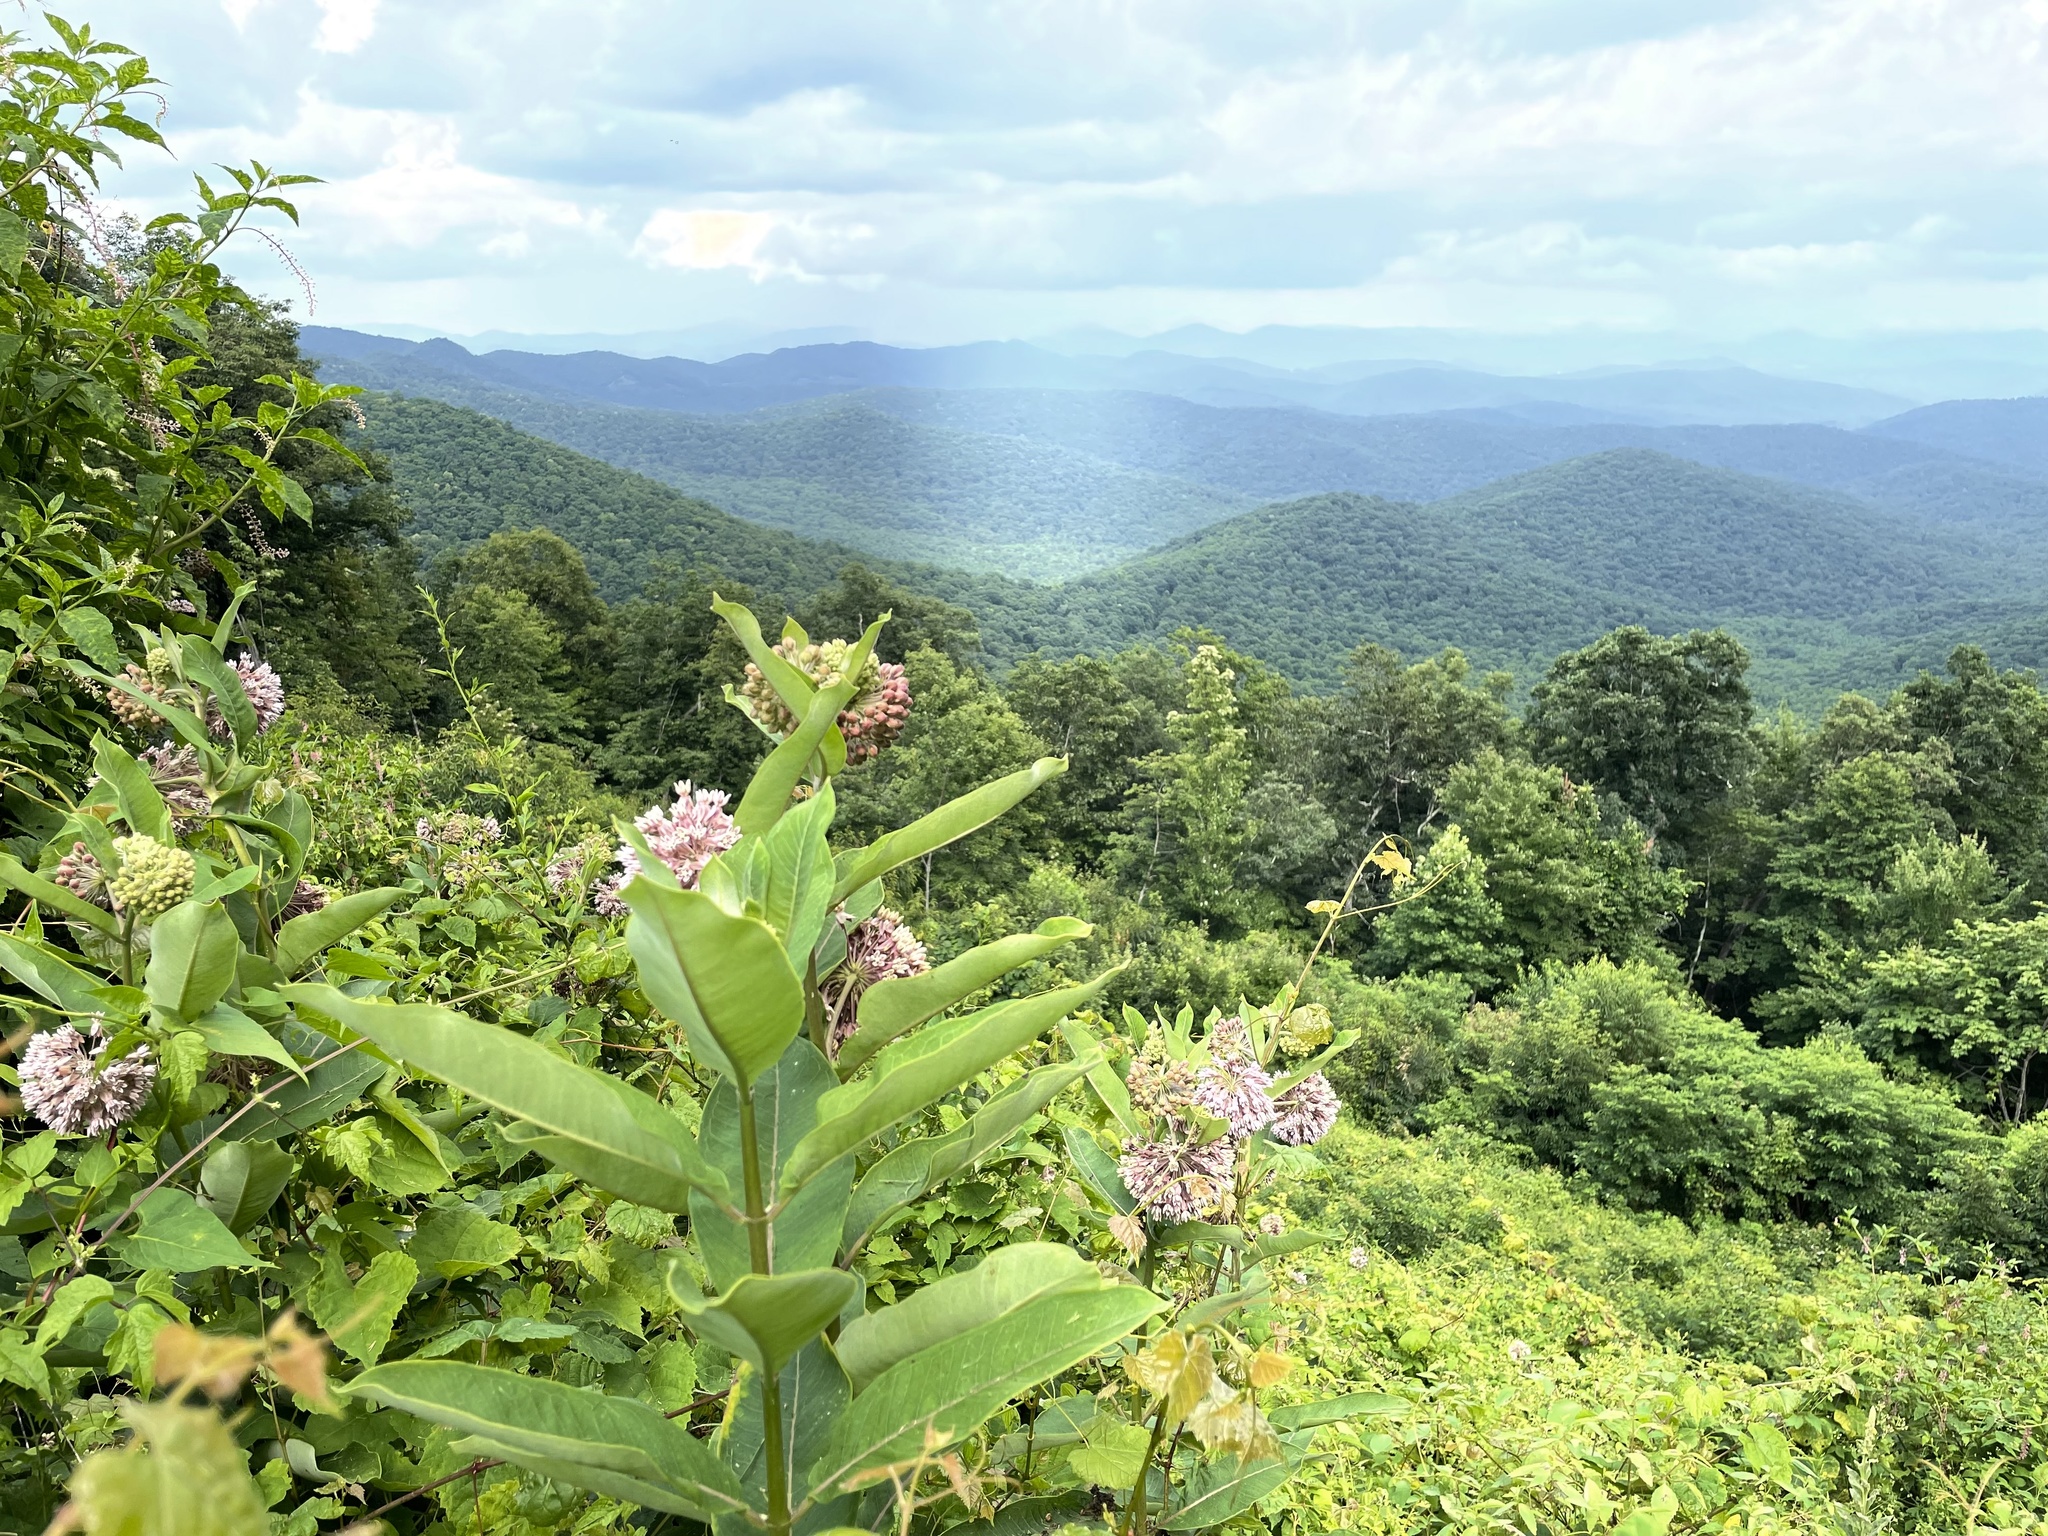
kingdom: Plantae
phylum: Tracheophyta
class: Magnoliopsida
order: Gentianales
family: Apocynaceae
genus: Asclepias
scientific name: Asclepias syriaca
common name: Common milkweed
